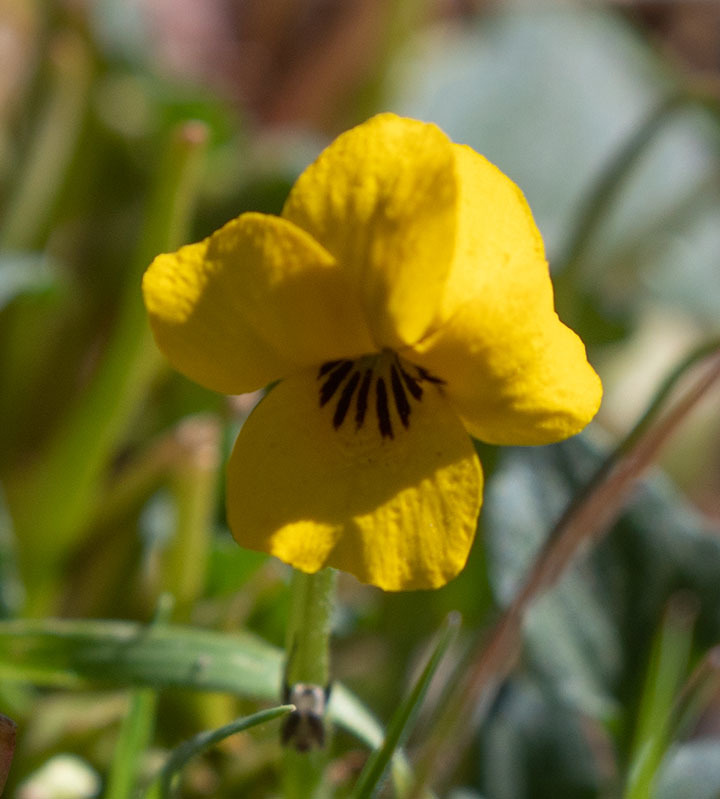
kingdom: Plantae
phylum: Tracheophyta
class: Magnoliopsida
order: Malpighiales
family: Violaceae
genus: Viola
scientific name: Viola pedunculata
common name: California golden violet
